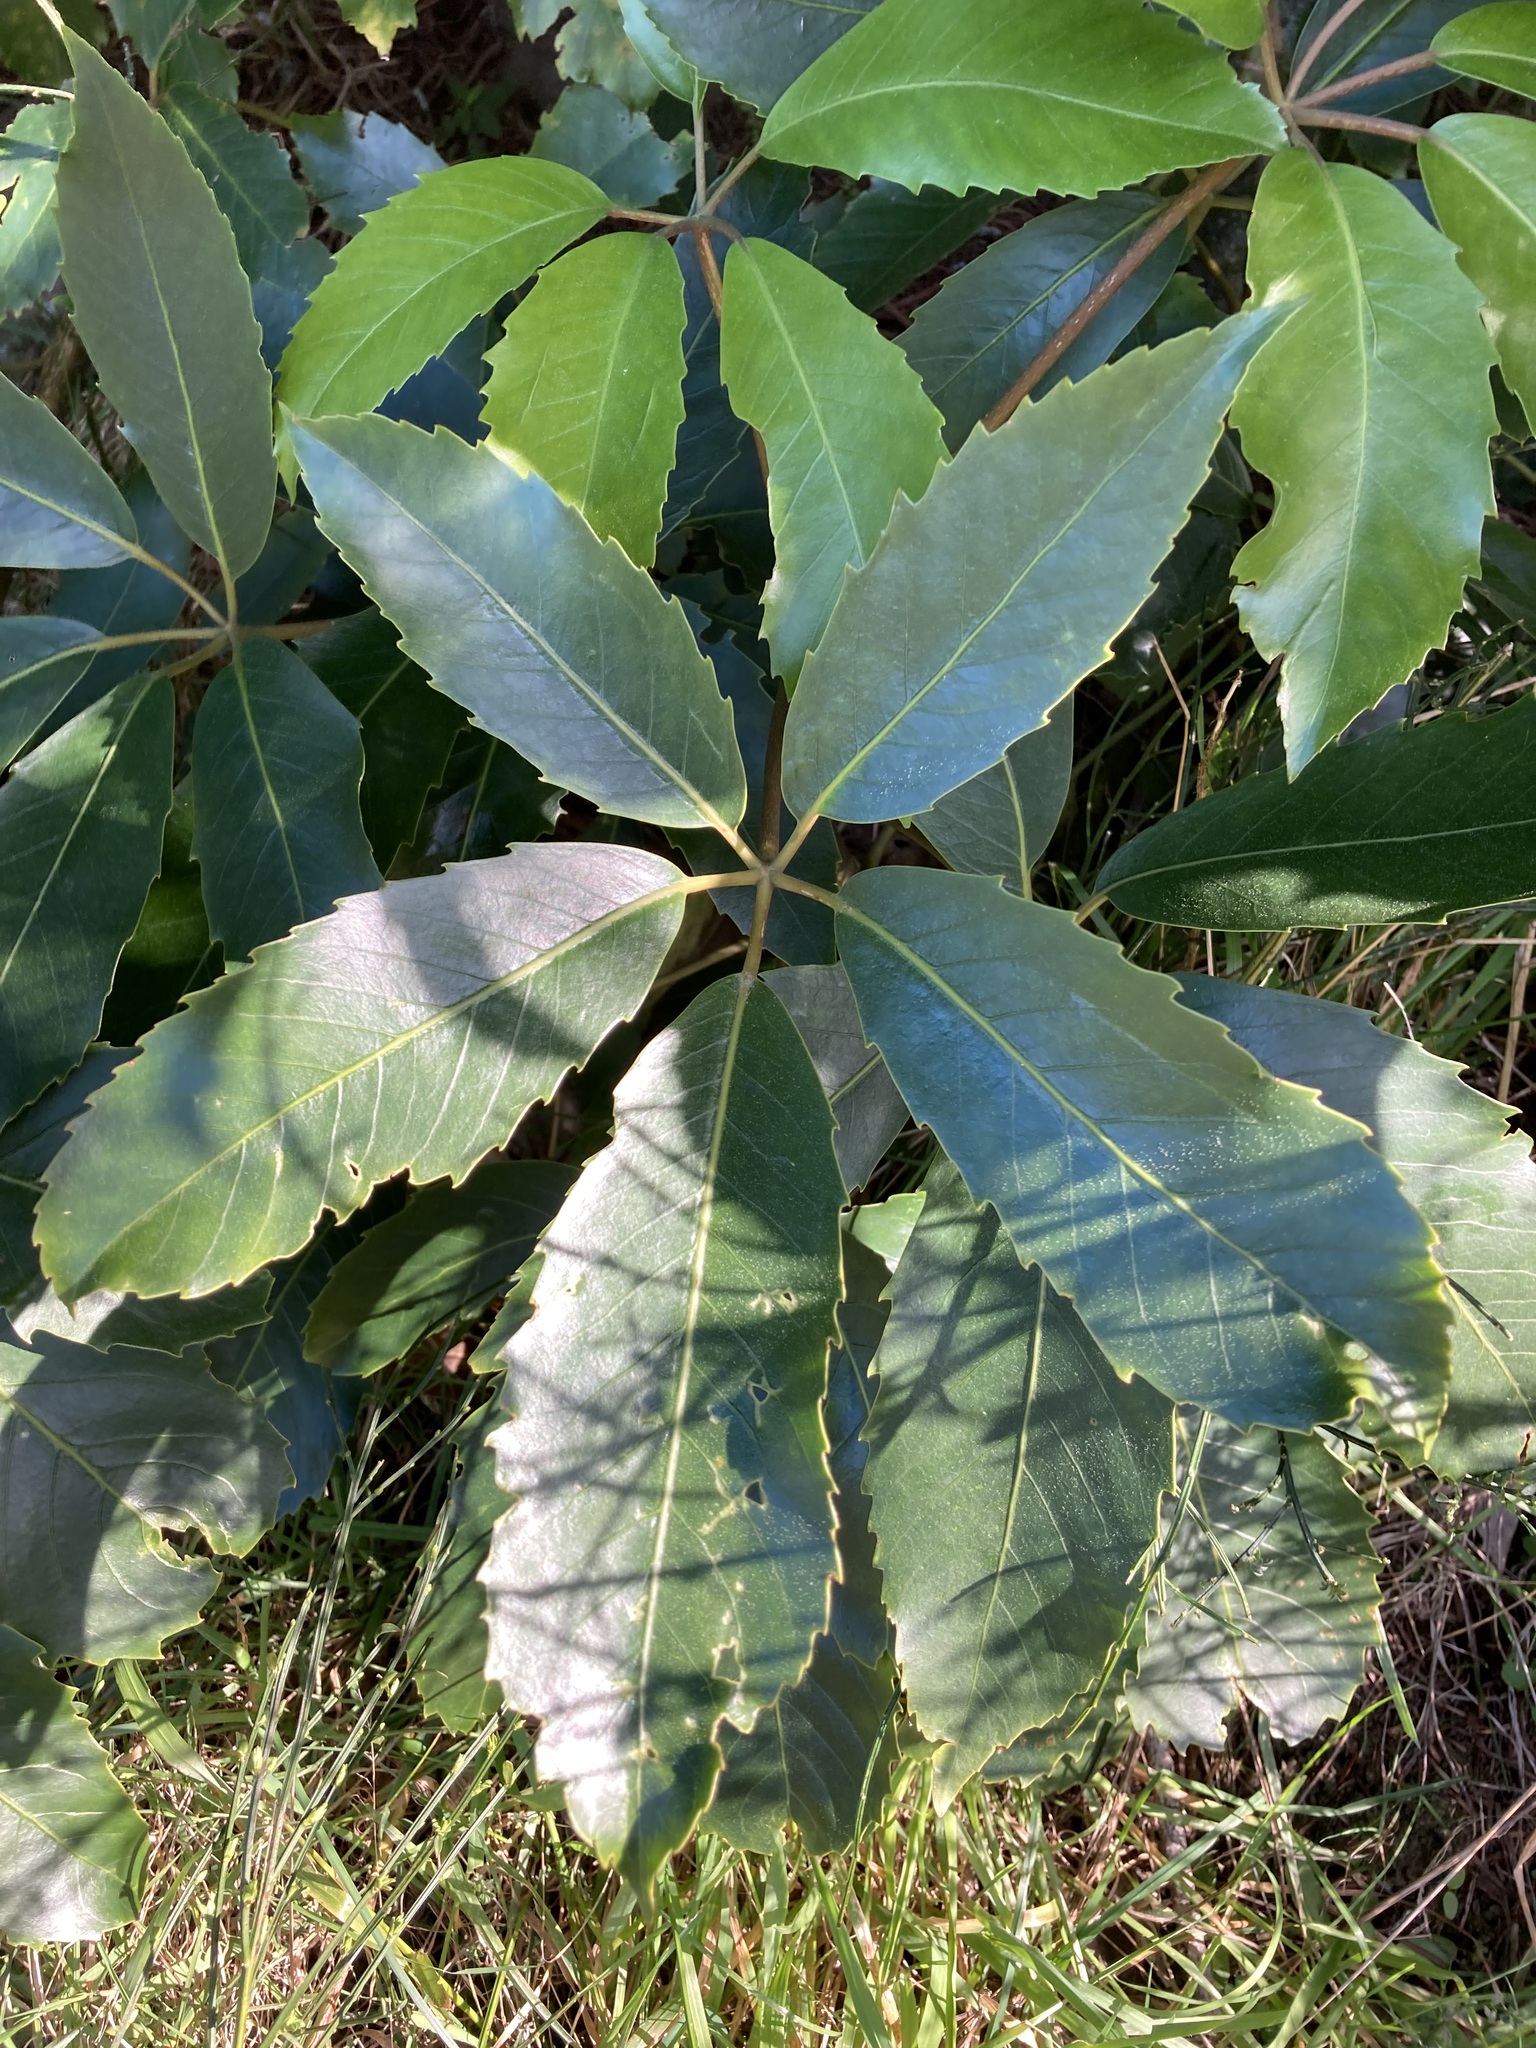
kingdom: Plantae
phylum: Tracheophyta
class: Magnoliopsida
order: Apiales
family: Araliaceae
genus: Neopanax
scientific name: Neopanax arboreus
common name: Five-fingers
